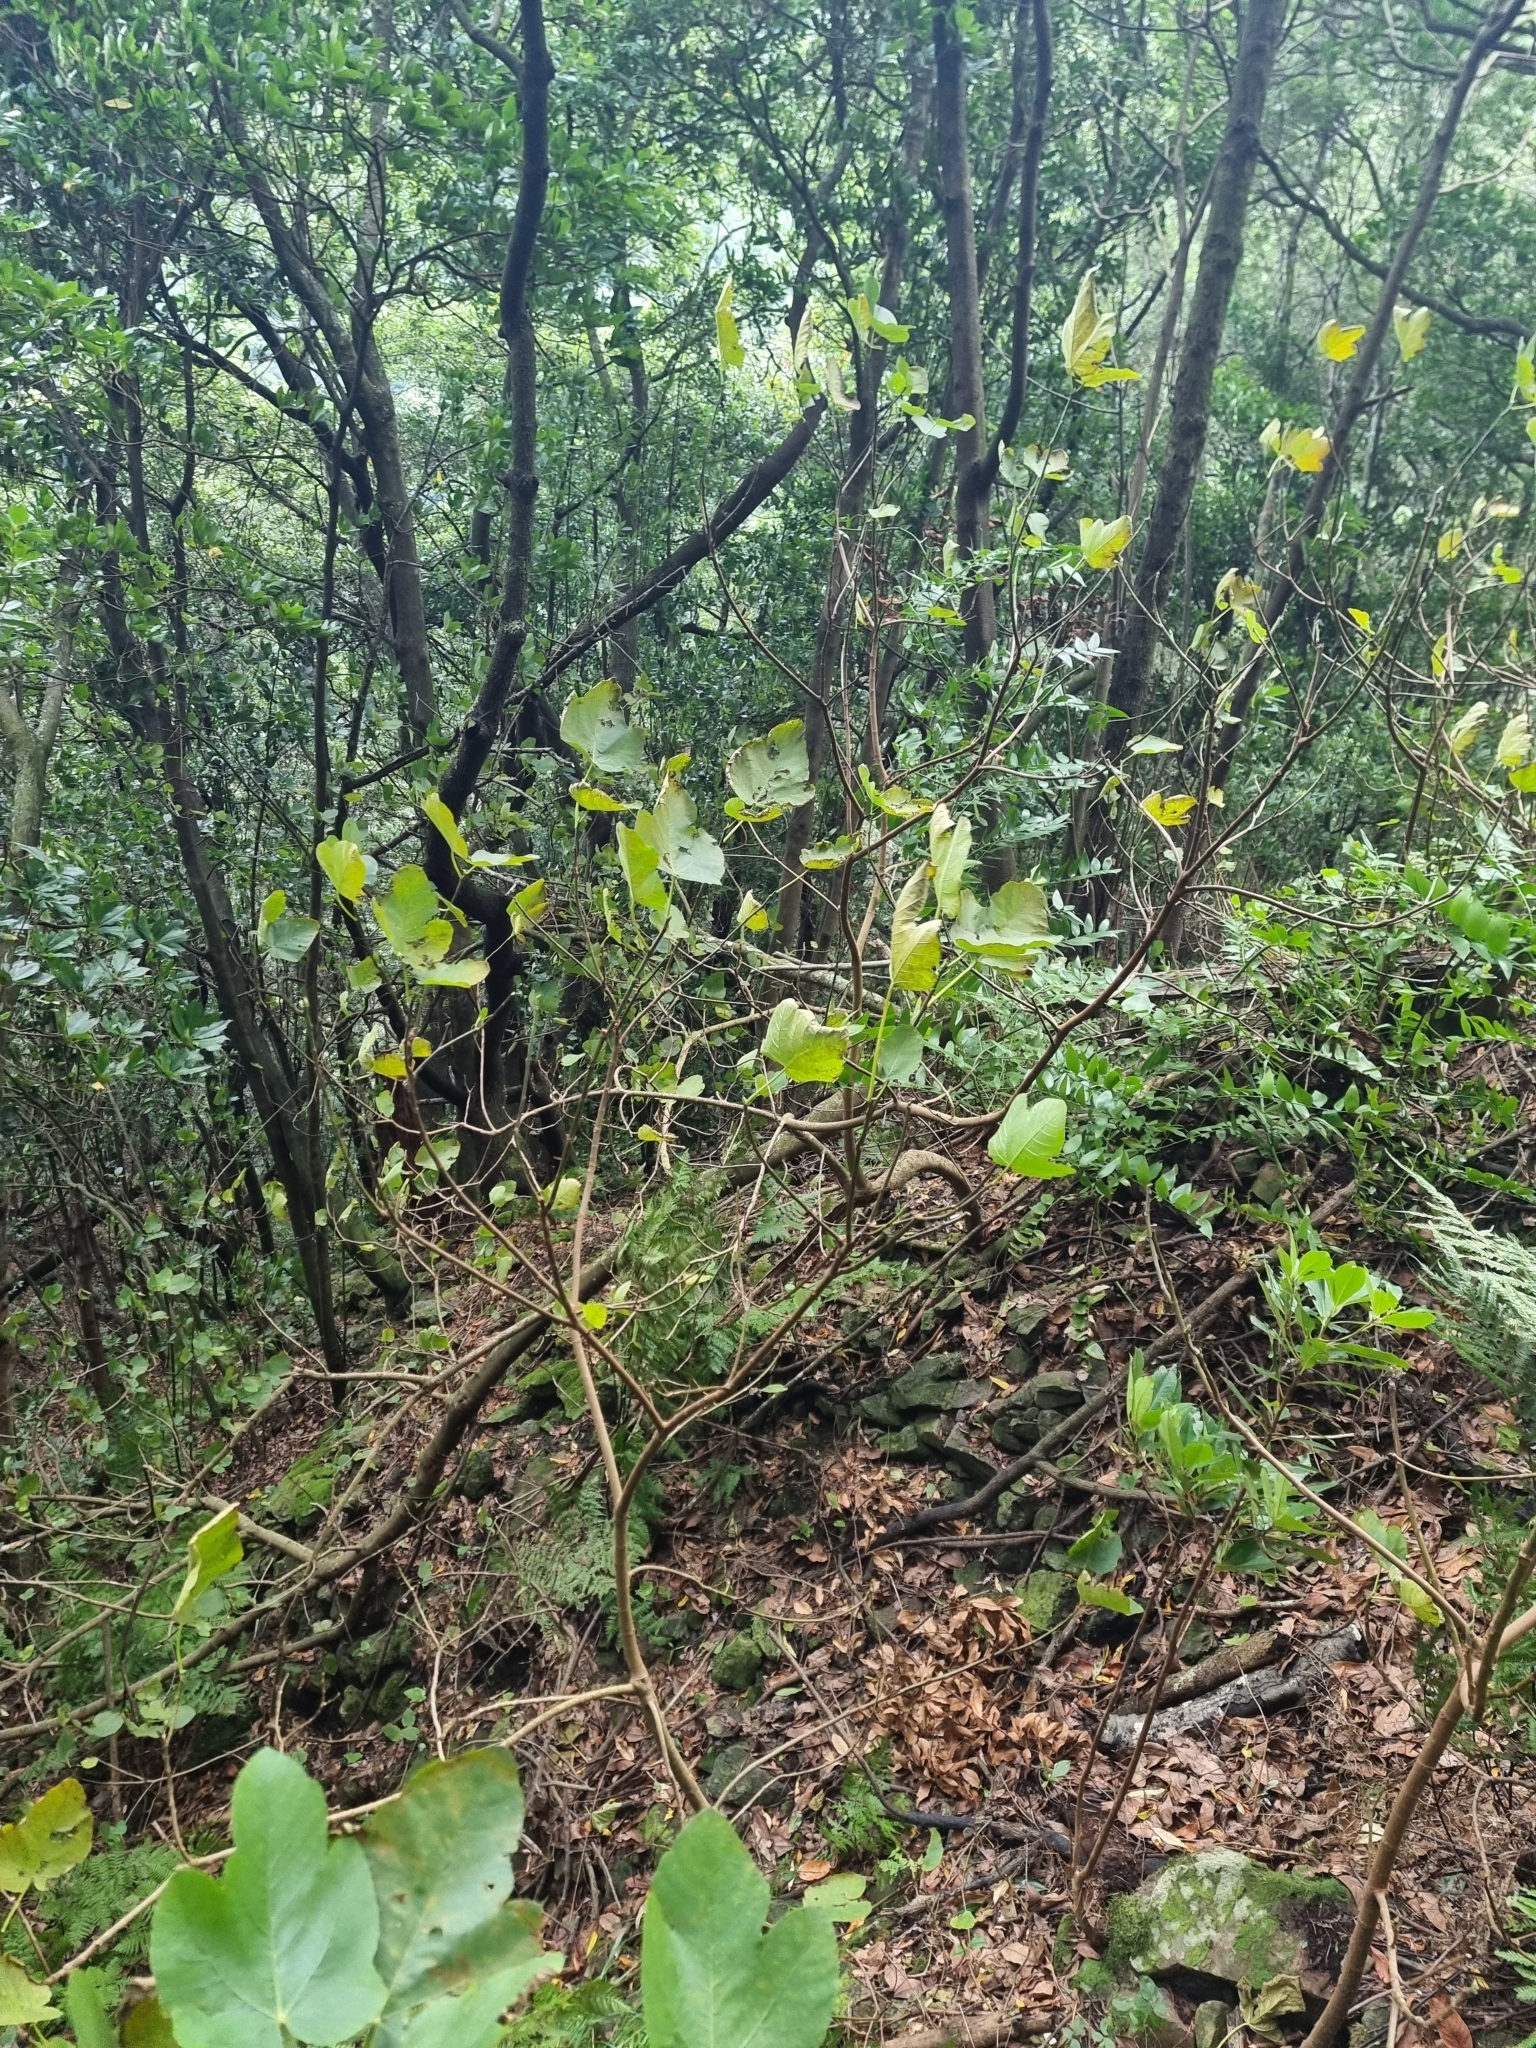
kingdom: Plantae
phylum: Tracheophyta
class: Magnoliopsida
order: Rosales
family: Moraceae
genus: Ficus
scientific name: Ficus carica
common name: Fig
